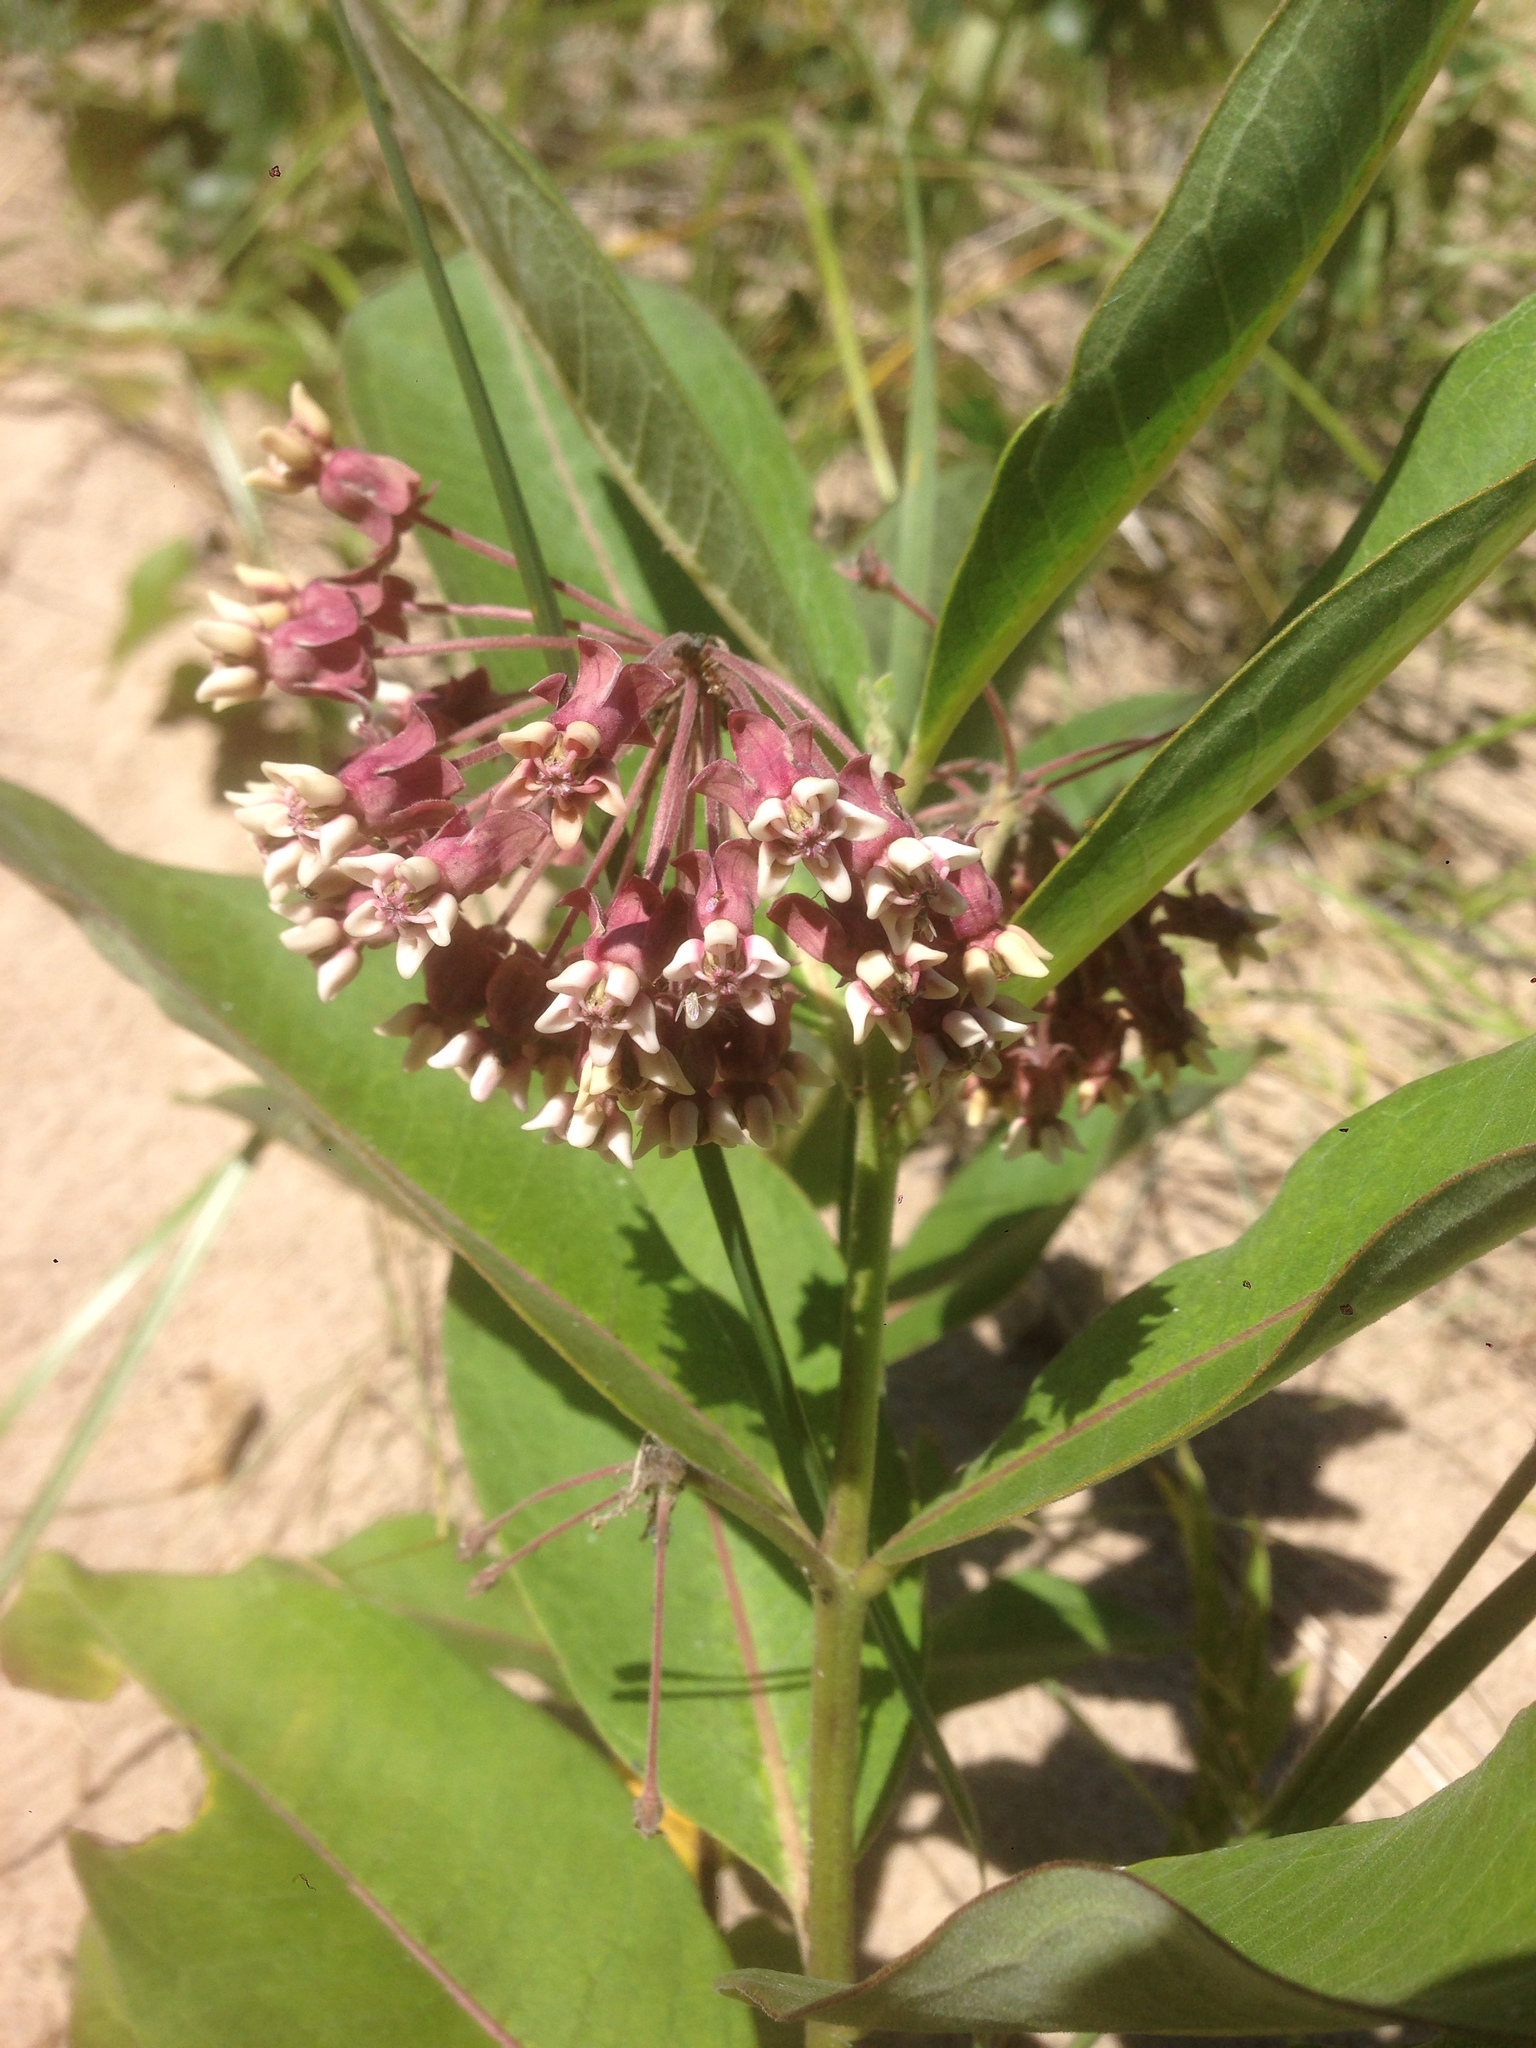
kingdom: Plantae
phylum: Tracheophyta
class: Magnoliopsida
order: Gentianales
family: Apocynaceae
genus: Asclepias
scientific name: Asclepias syriaca
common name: Common milkweed
